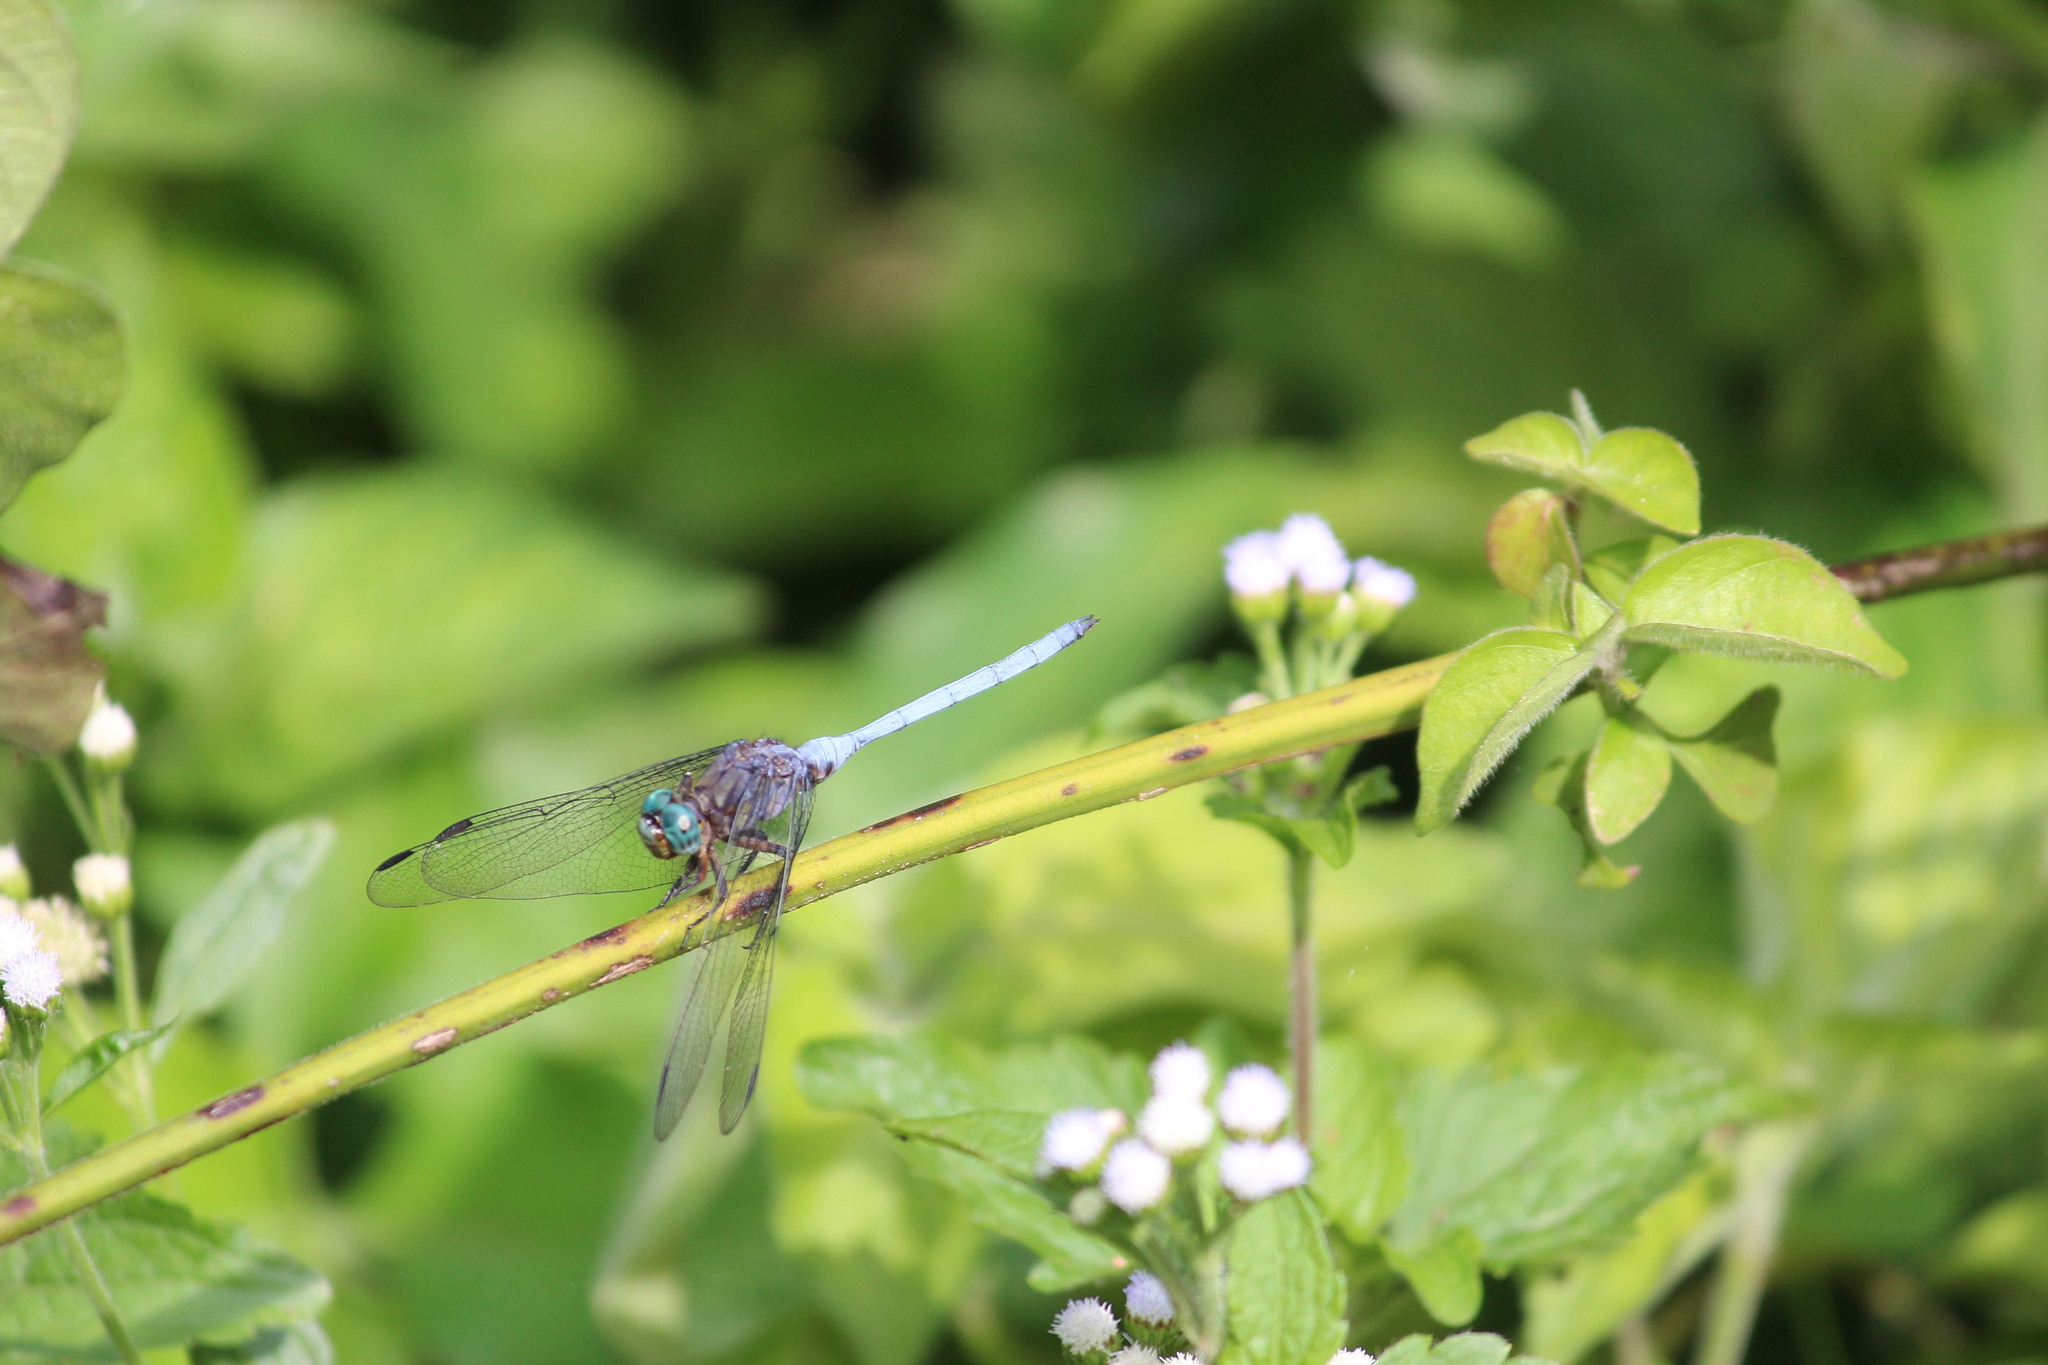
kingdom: Animalia
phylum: Arthropoda
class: Insecta
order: Odonata
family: Libellulidae
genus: Orthetrum
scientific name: Orthetrum julia
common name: Julia skimmer
